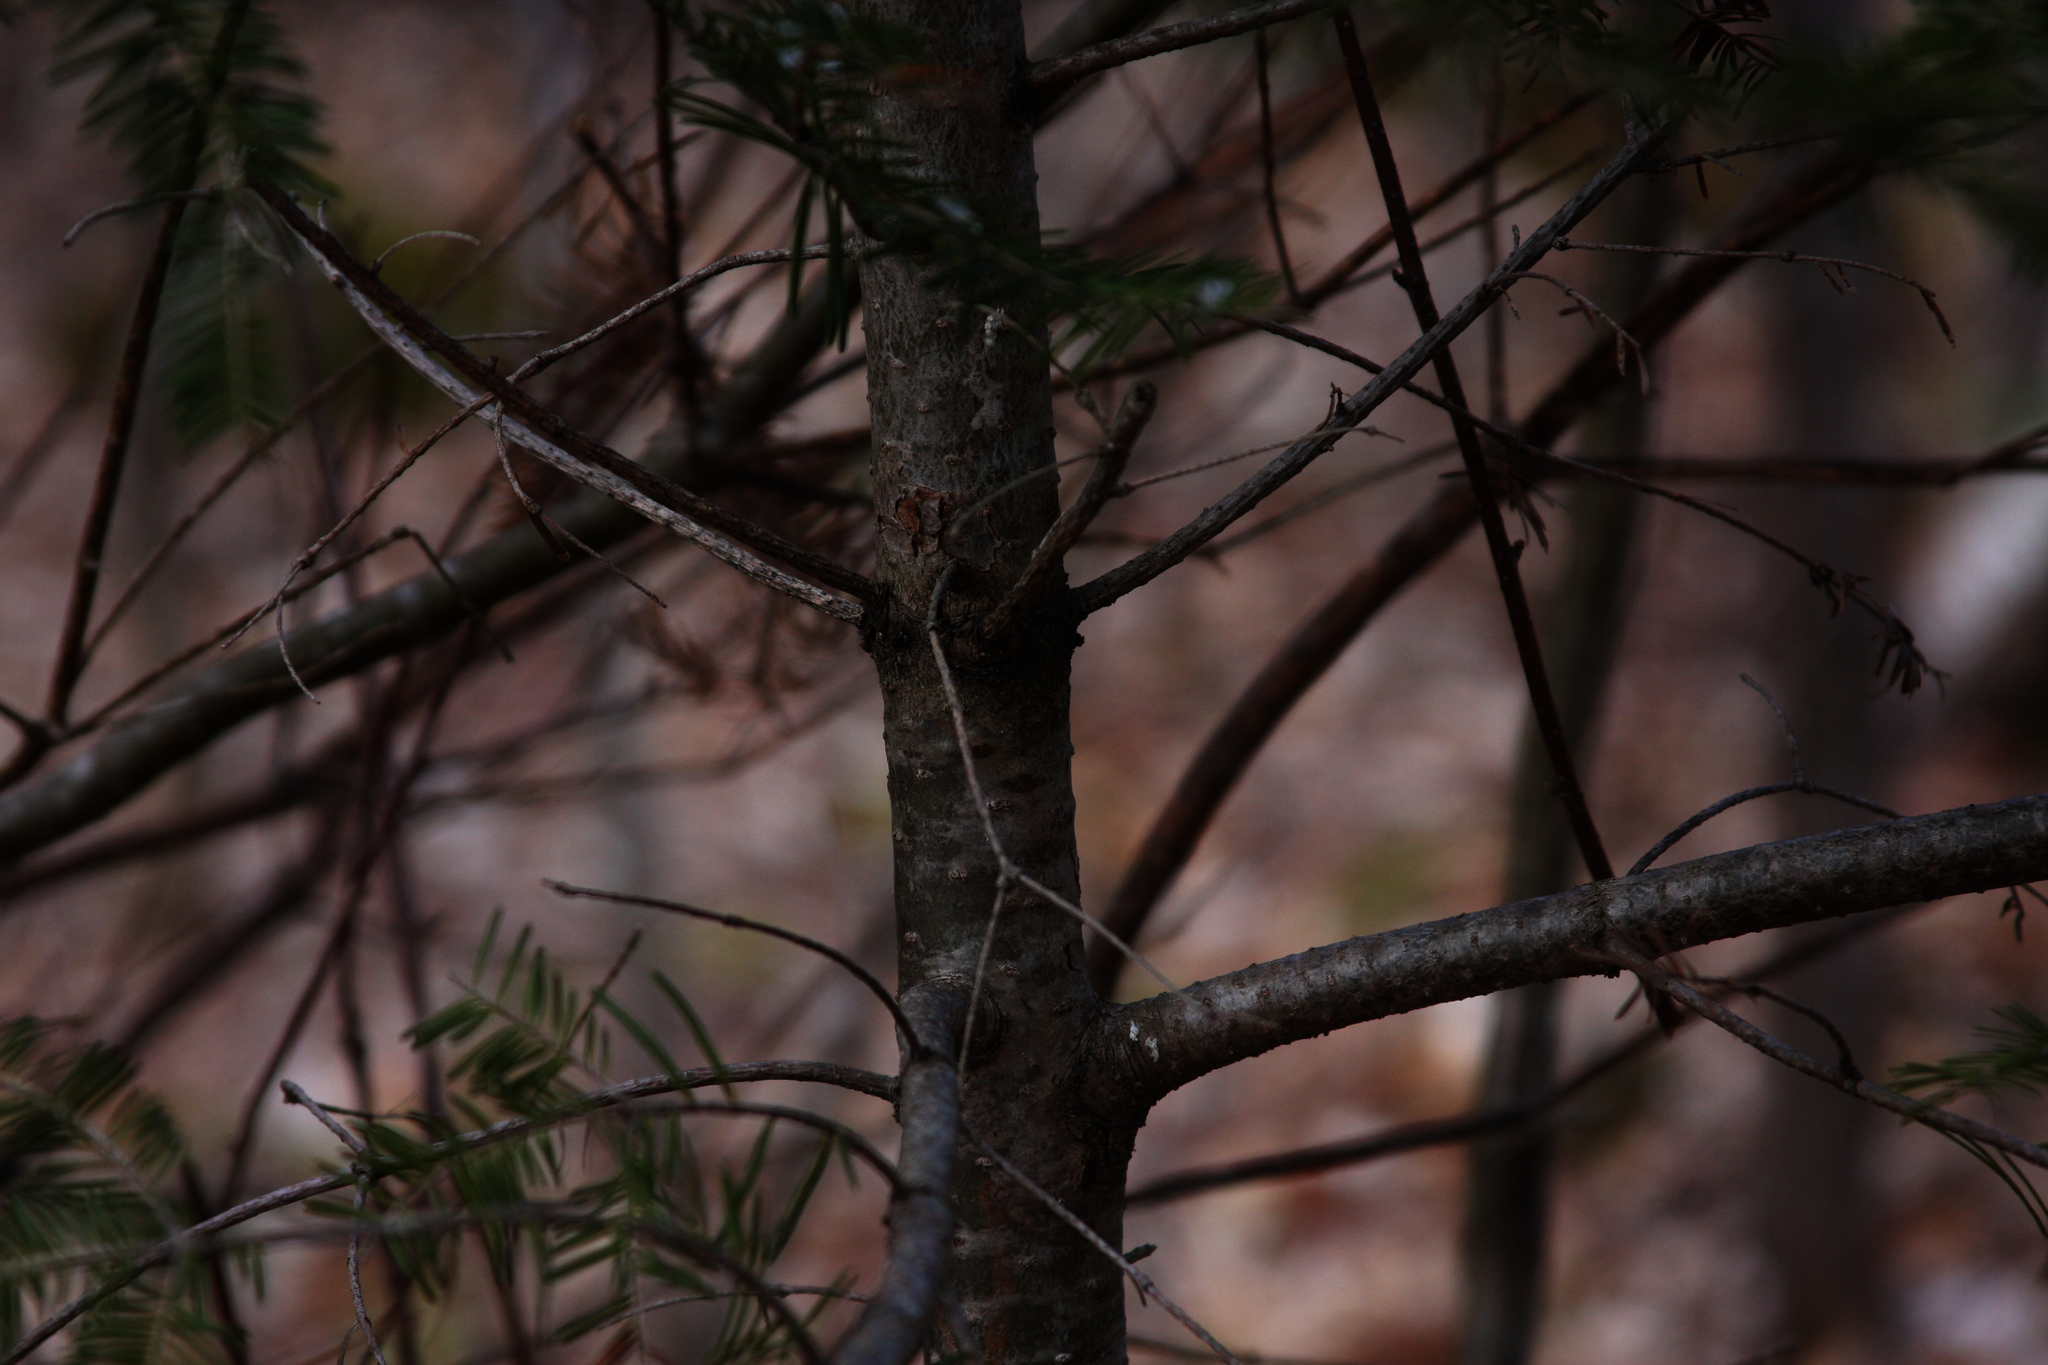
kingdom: Plantae
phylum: Tracheophyta
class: Pinopsida
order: Pinales
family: Pinaceae
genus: Abies
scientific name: Abies balsamea
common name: Balsam fir
